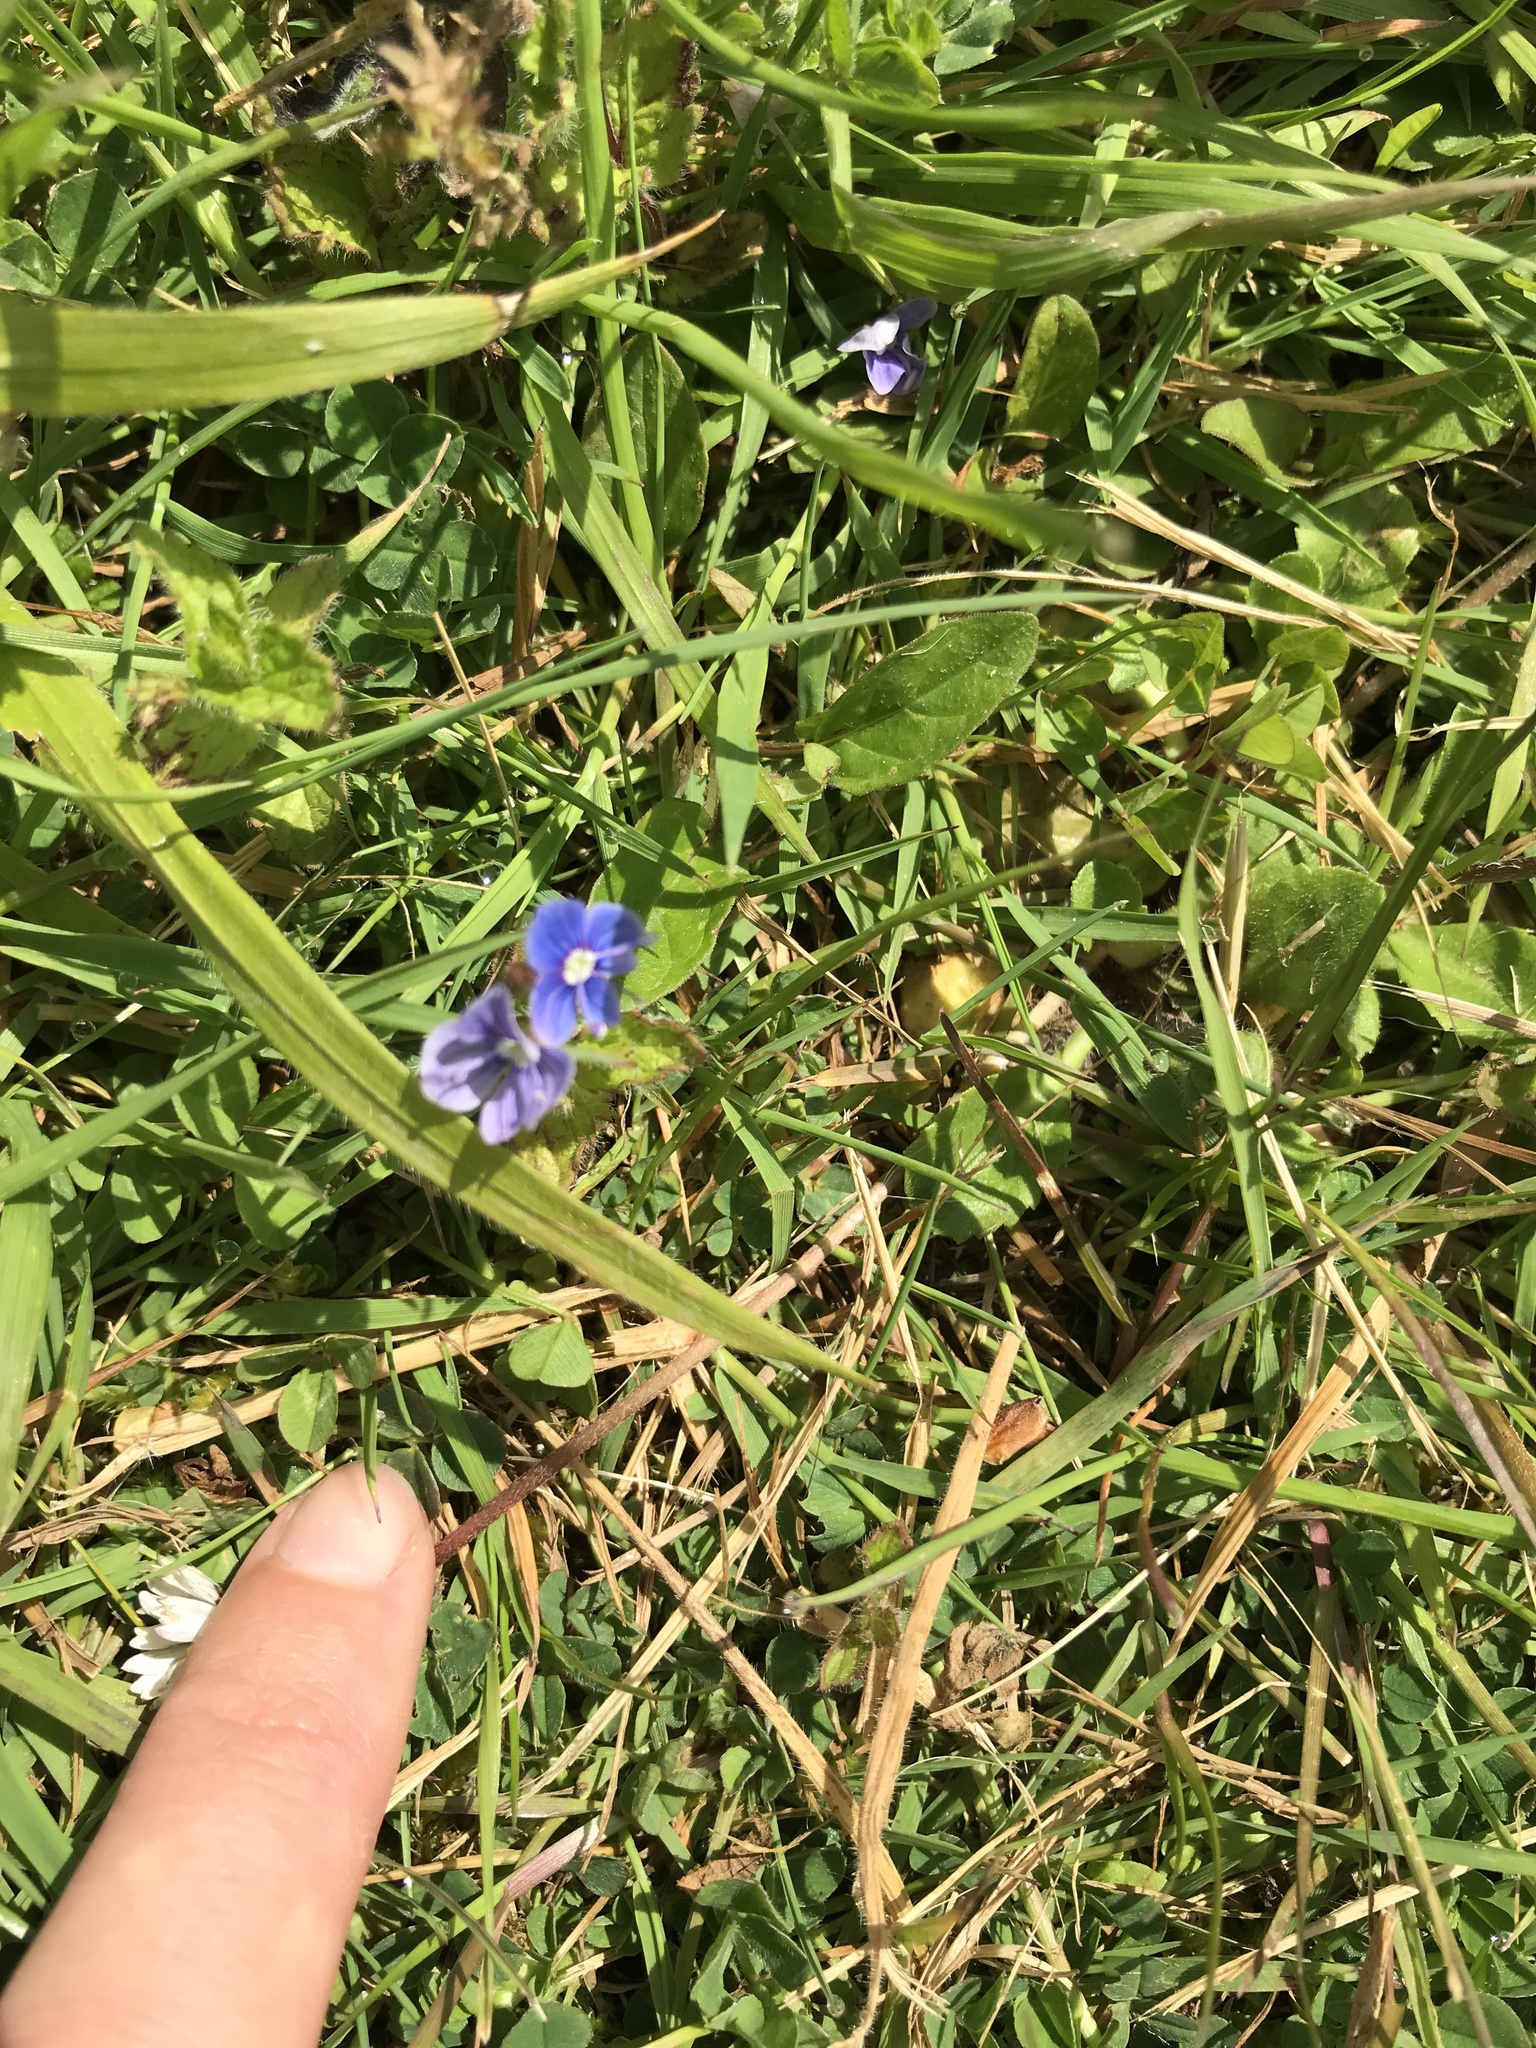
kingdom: Plantae
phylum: Tracheophyta
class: Magnoliopsida
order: Lamiales
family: Plantaginaceae
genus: Veronica
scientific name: Veronica chamaedrys
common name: Germander speedwell
